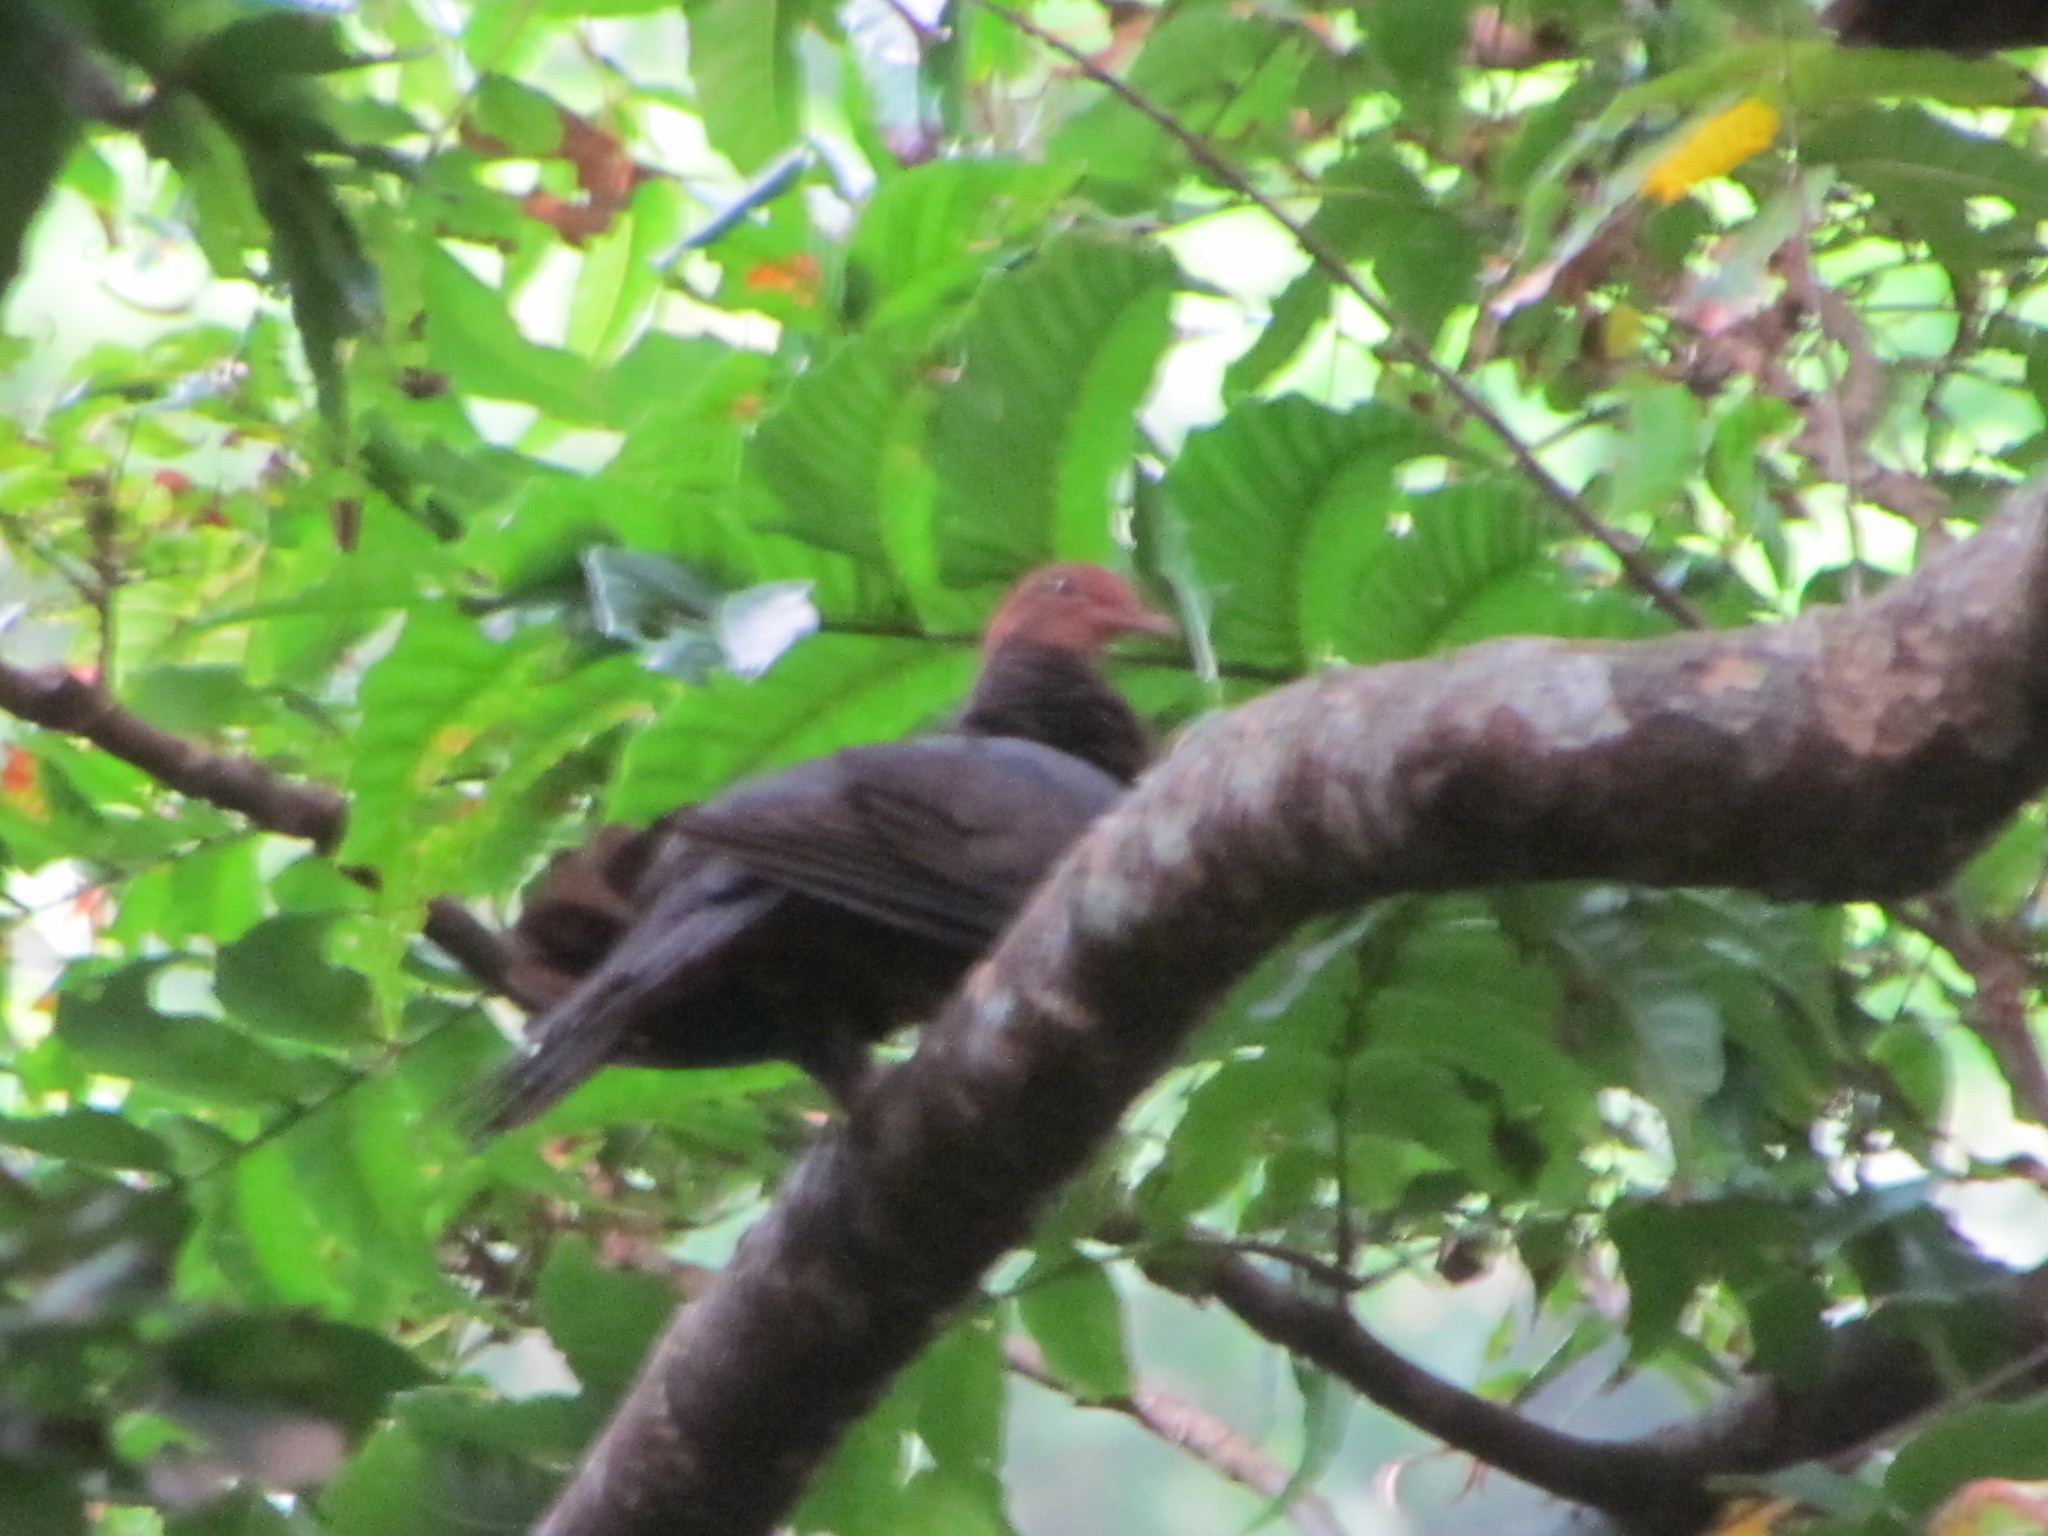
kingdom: Animalia
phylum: Chordata
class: Aves
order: Columbiformes
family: Columbidae
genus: Macropygia
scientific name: Macropygia tenuirostris
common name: Philippine cuckoo-dove
